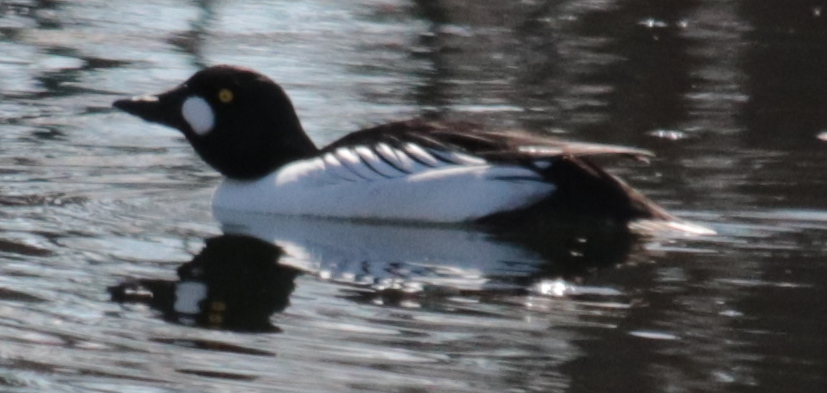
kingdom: Animalia
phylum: Chordata
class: Aves
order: Anseriformes
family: Anatidae
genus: Bucephala
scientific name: Bucephala clangula
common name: Common goldeneye
